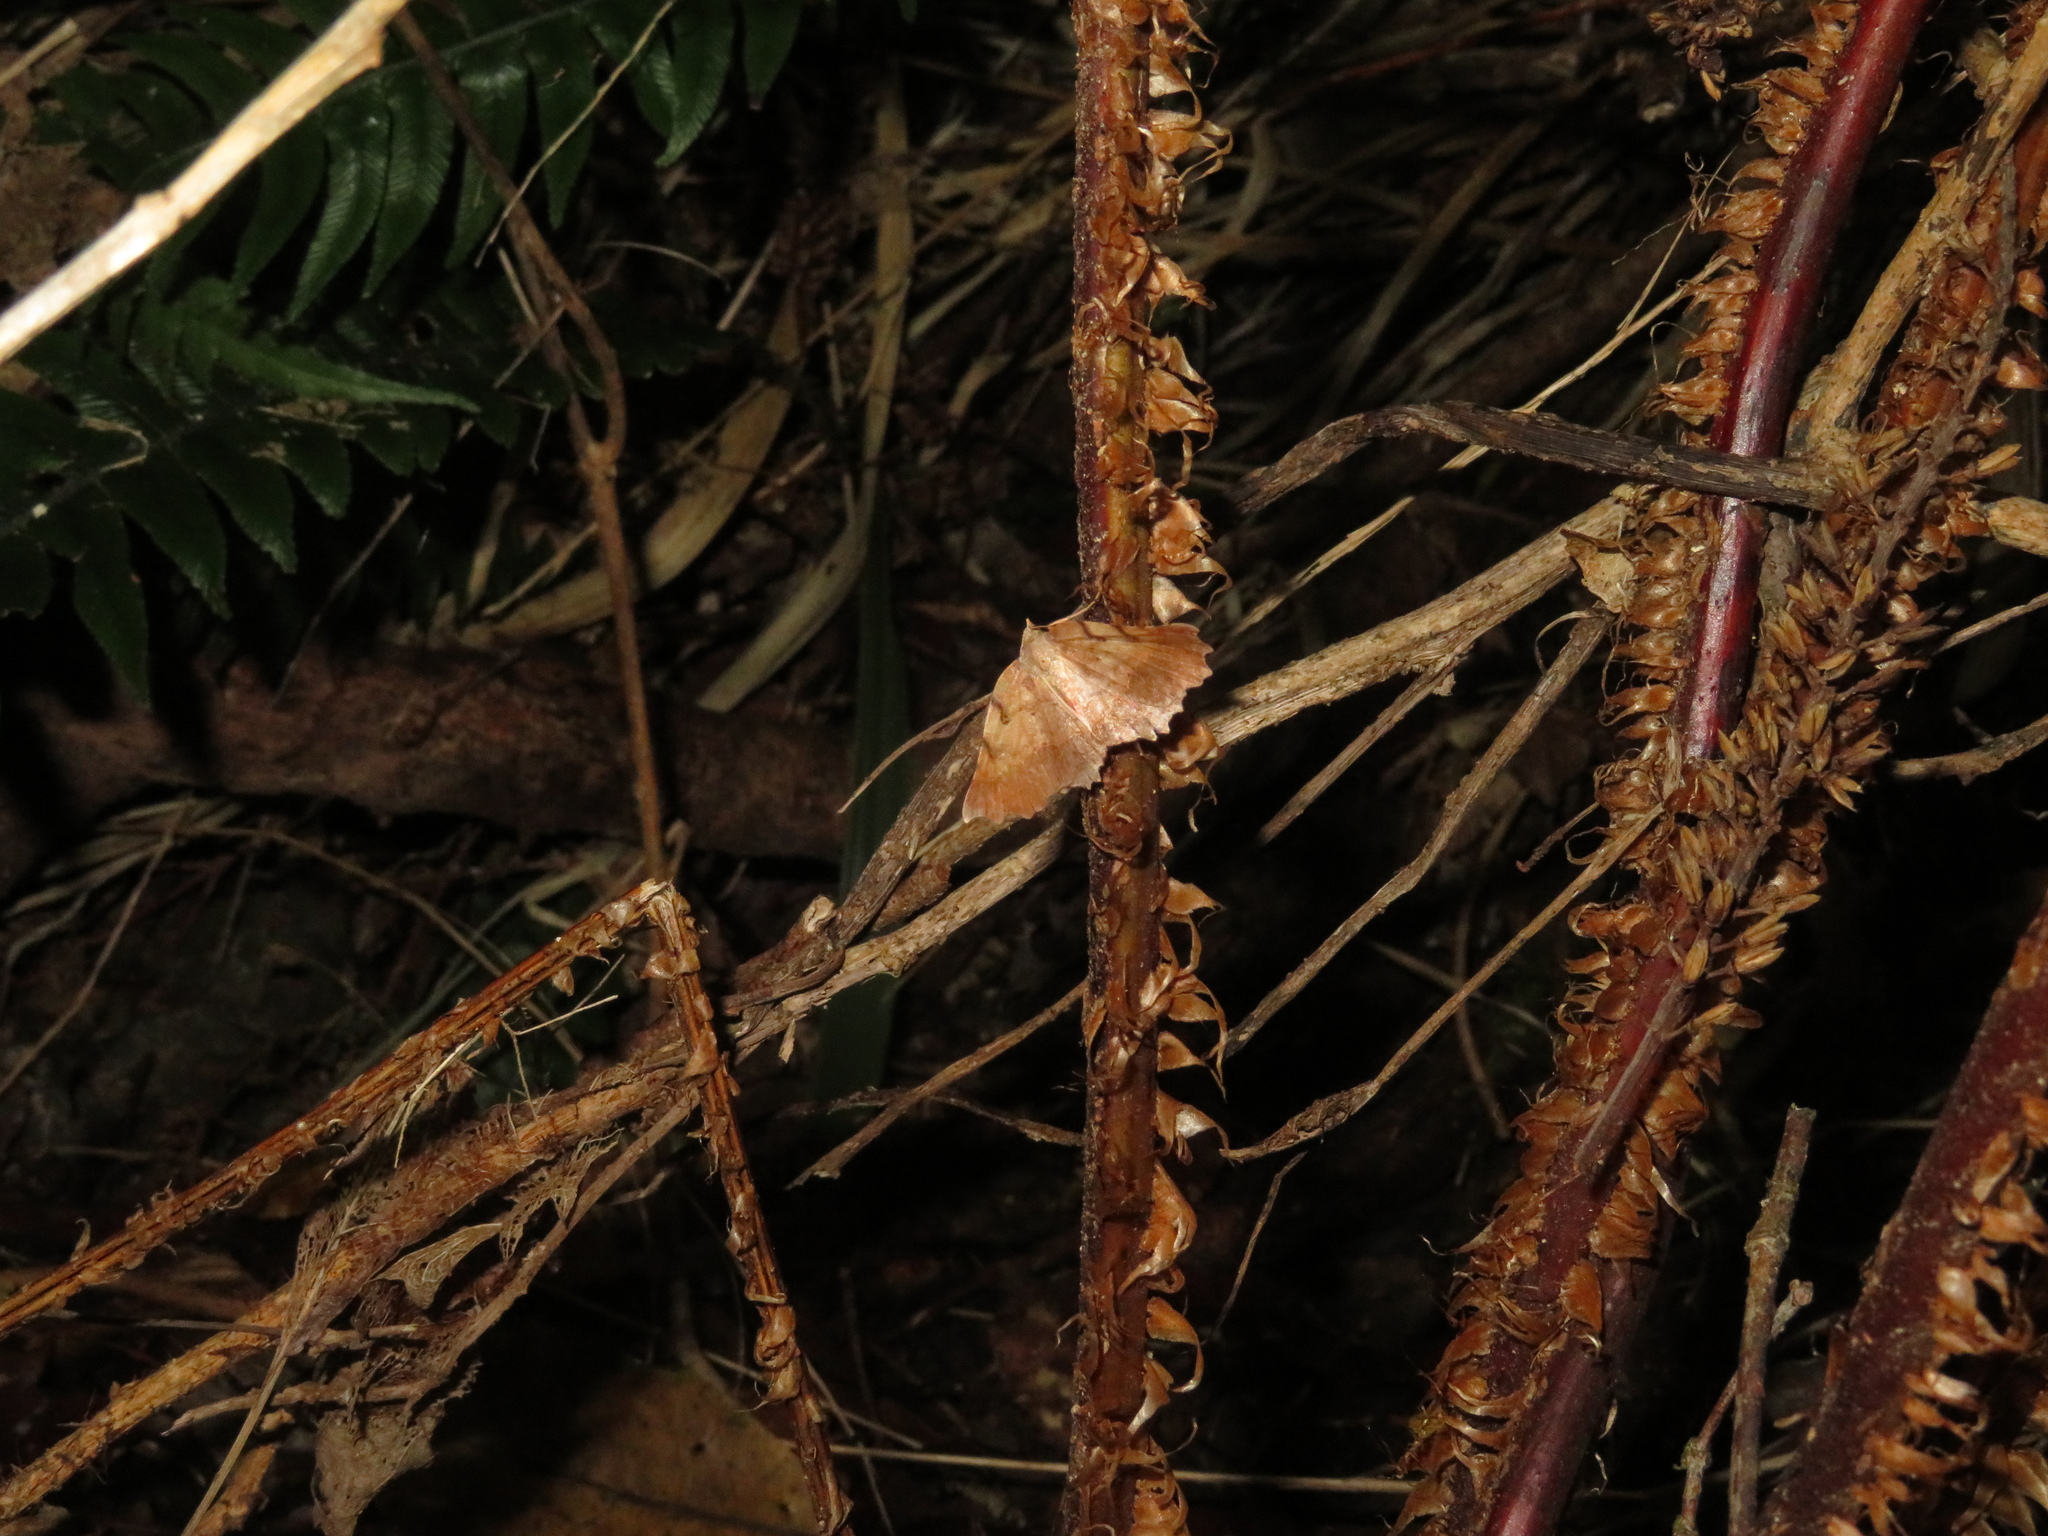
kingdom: Animalia
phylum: Arthropoda
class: Insecta
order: Lepidoptera
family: Geometridae
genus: Ischalis
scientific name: Ischalis gallaria
